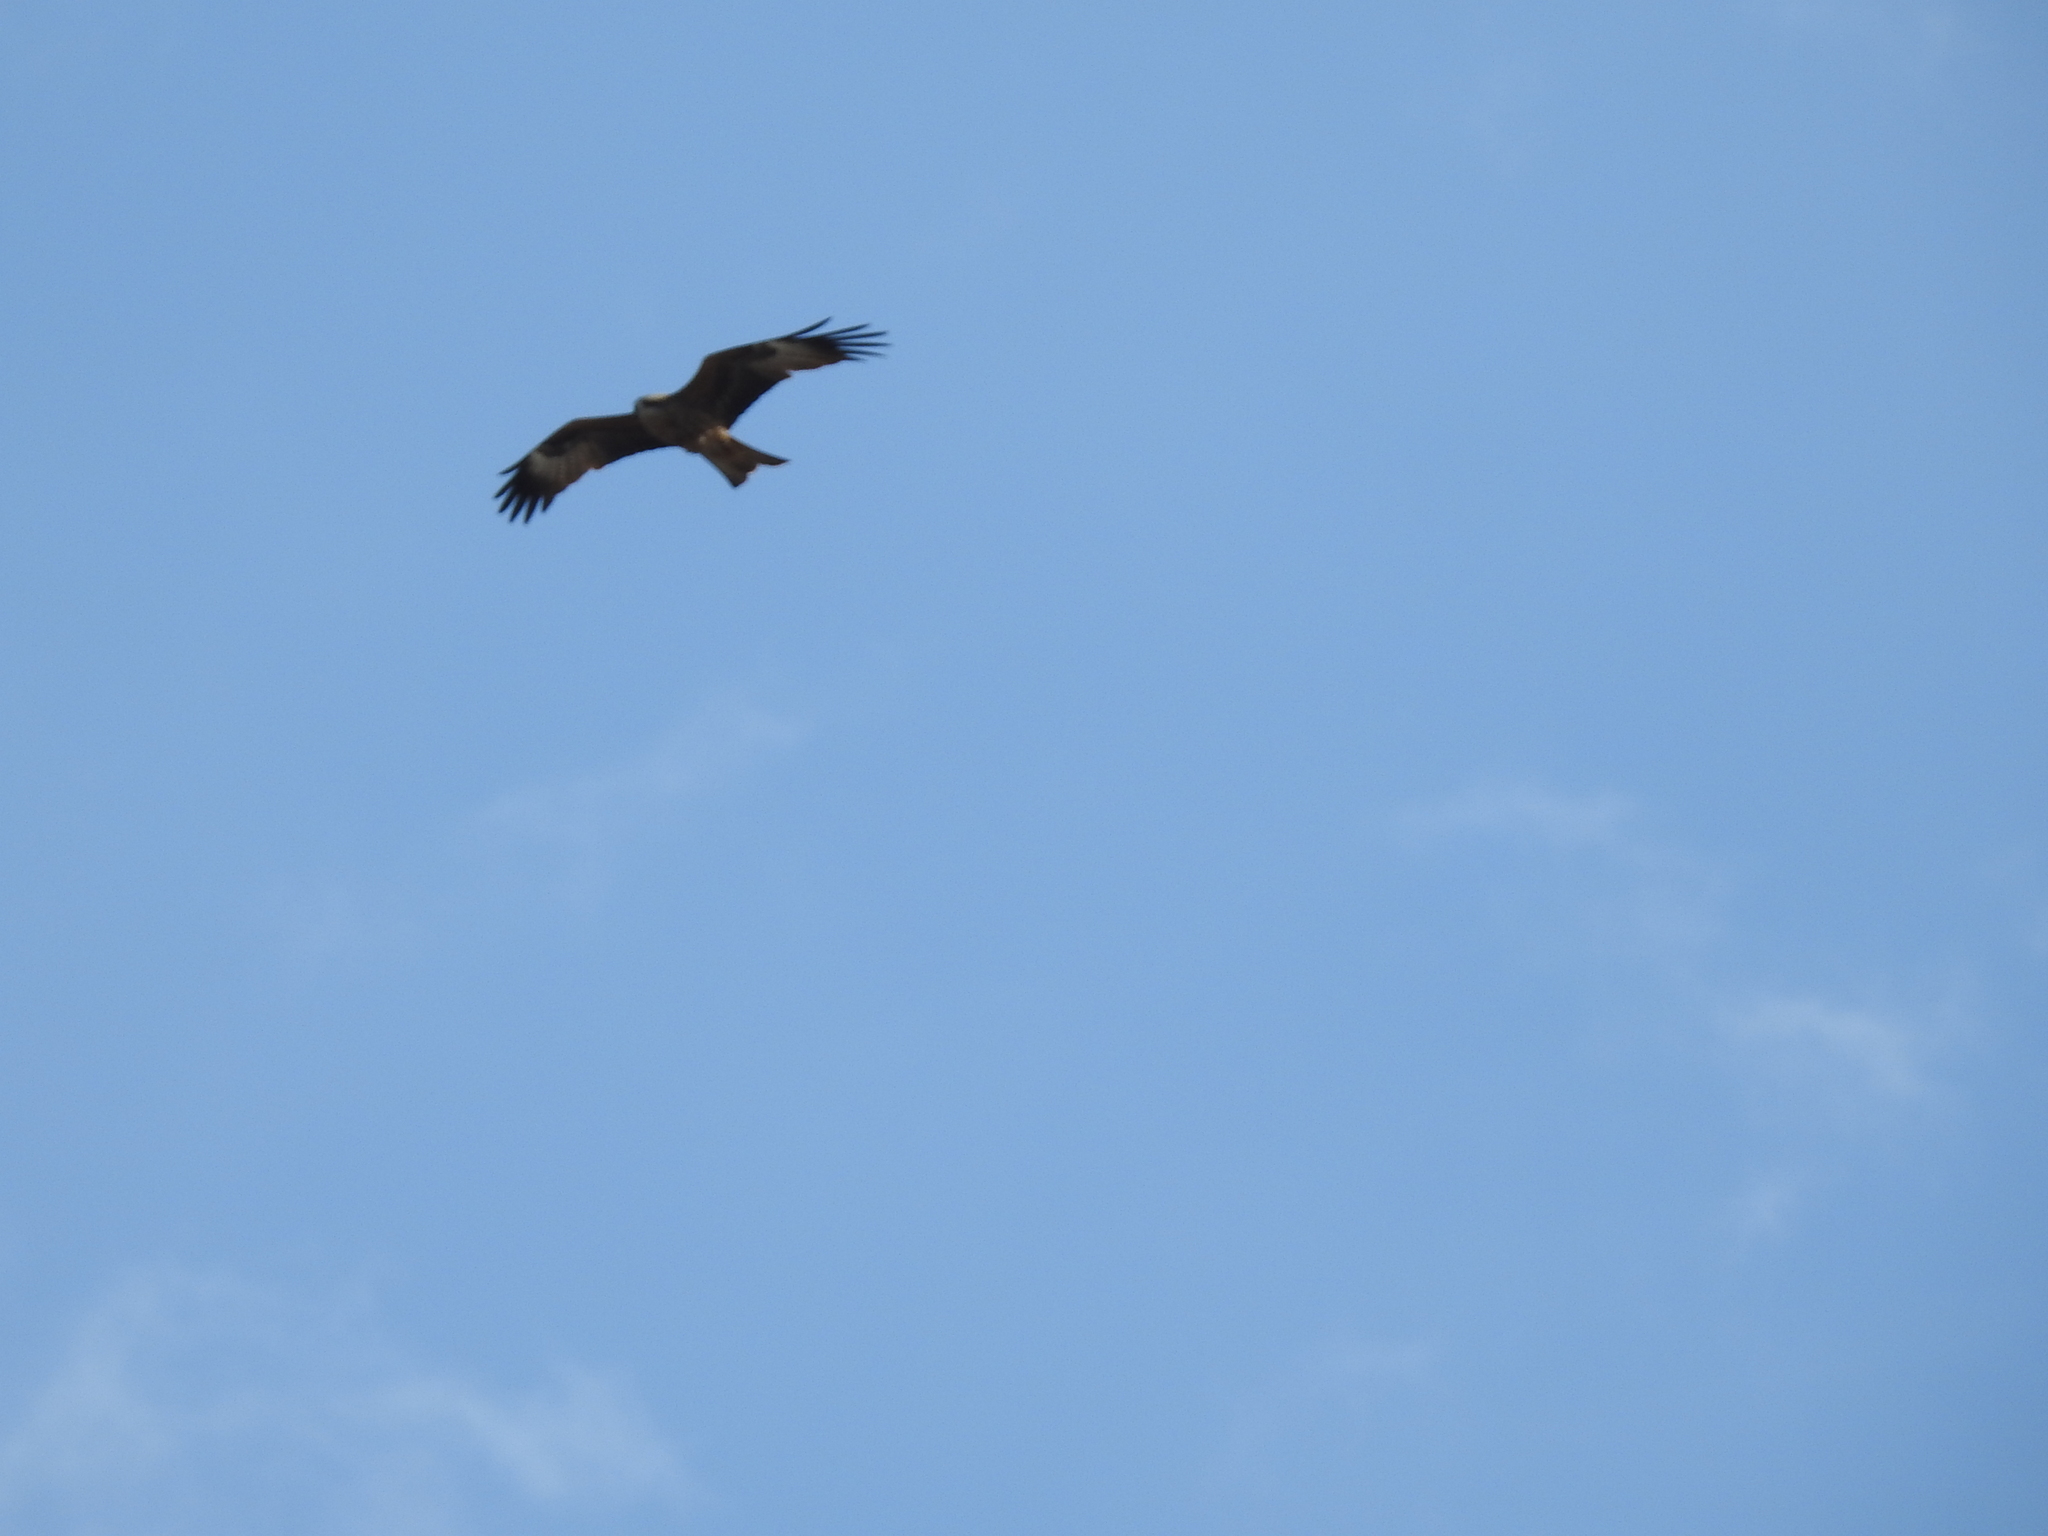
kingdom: Animalia
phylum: Chordata
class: Aves
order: Accipitriformes
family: Accipitridae
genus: Milvus
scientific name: Milvus migrans
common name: Black kite
